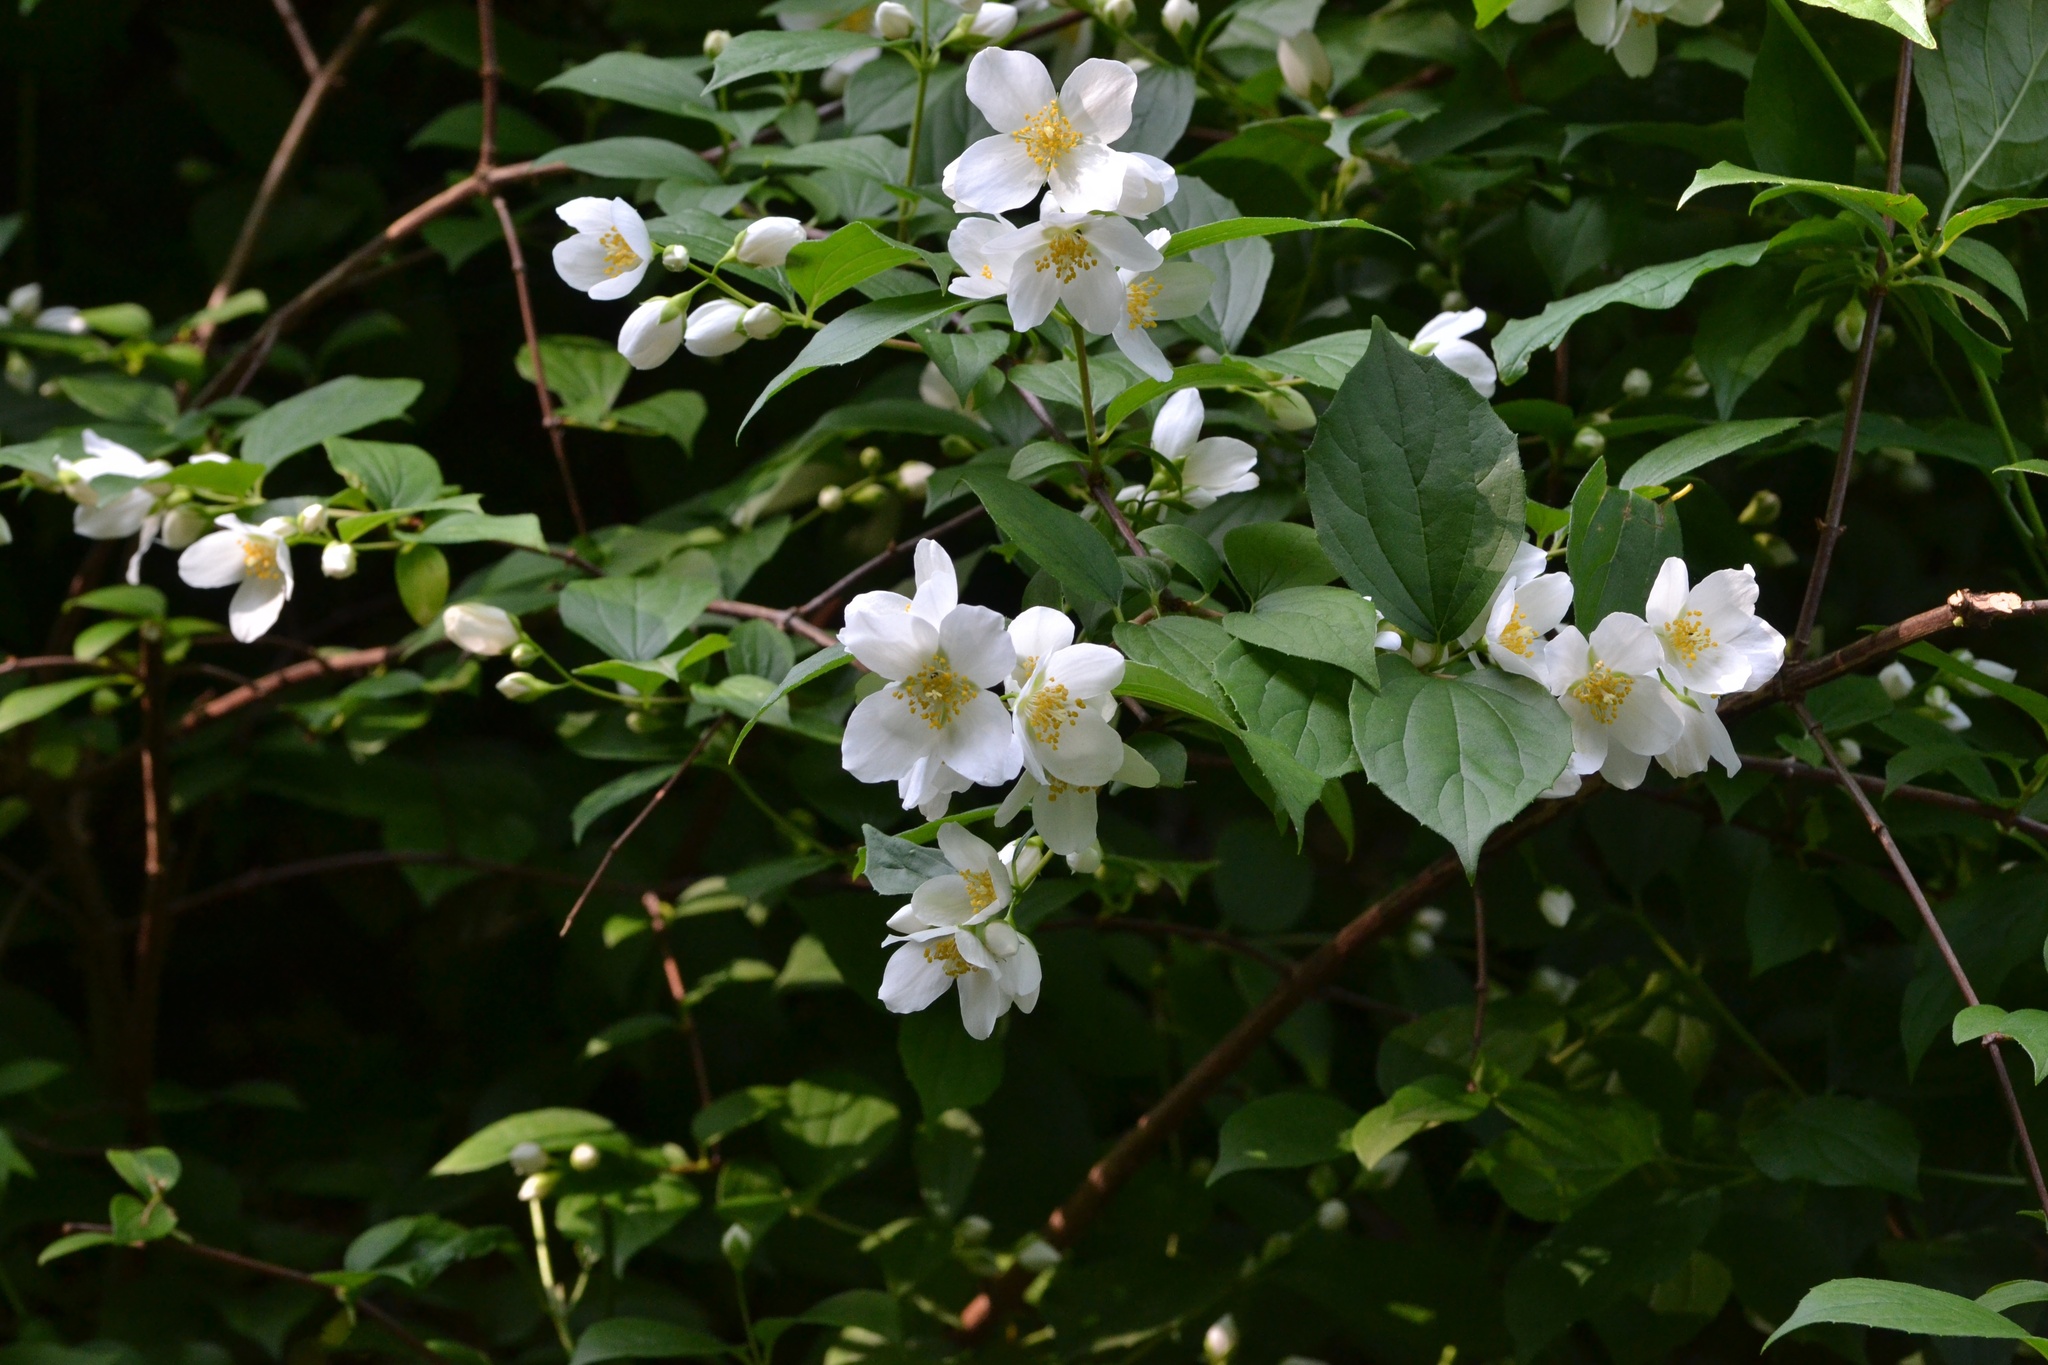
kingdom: Plantae
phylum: Tracheophyta
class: Magnoliopsida
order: Cornales
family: Hydrangeaceae
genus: Philadelphus
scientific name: Philadelphus coronarius
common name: Mock orange
